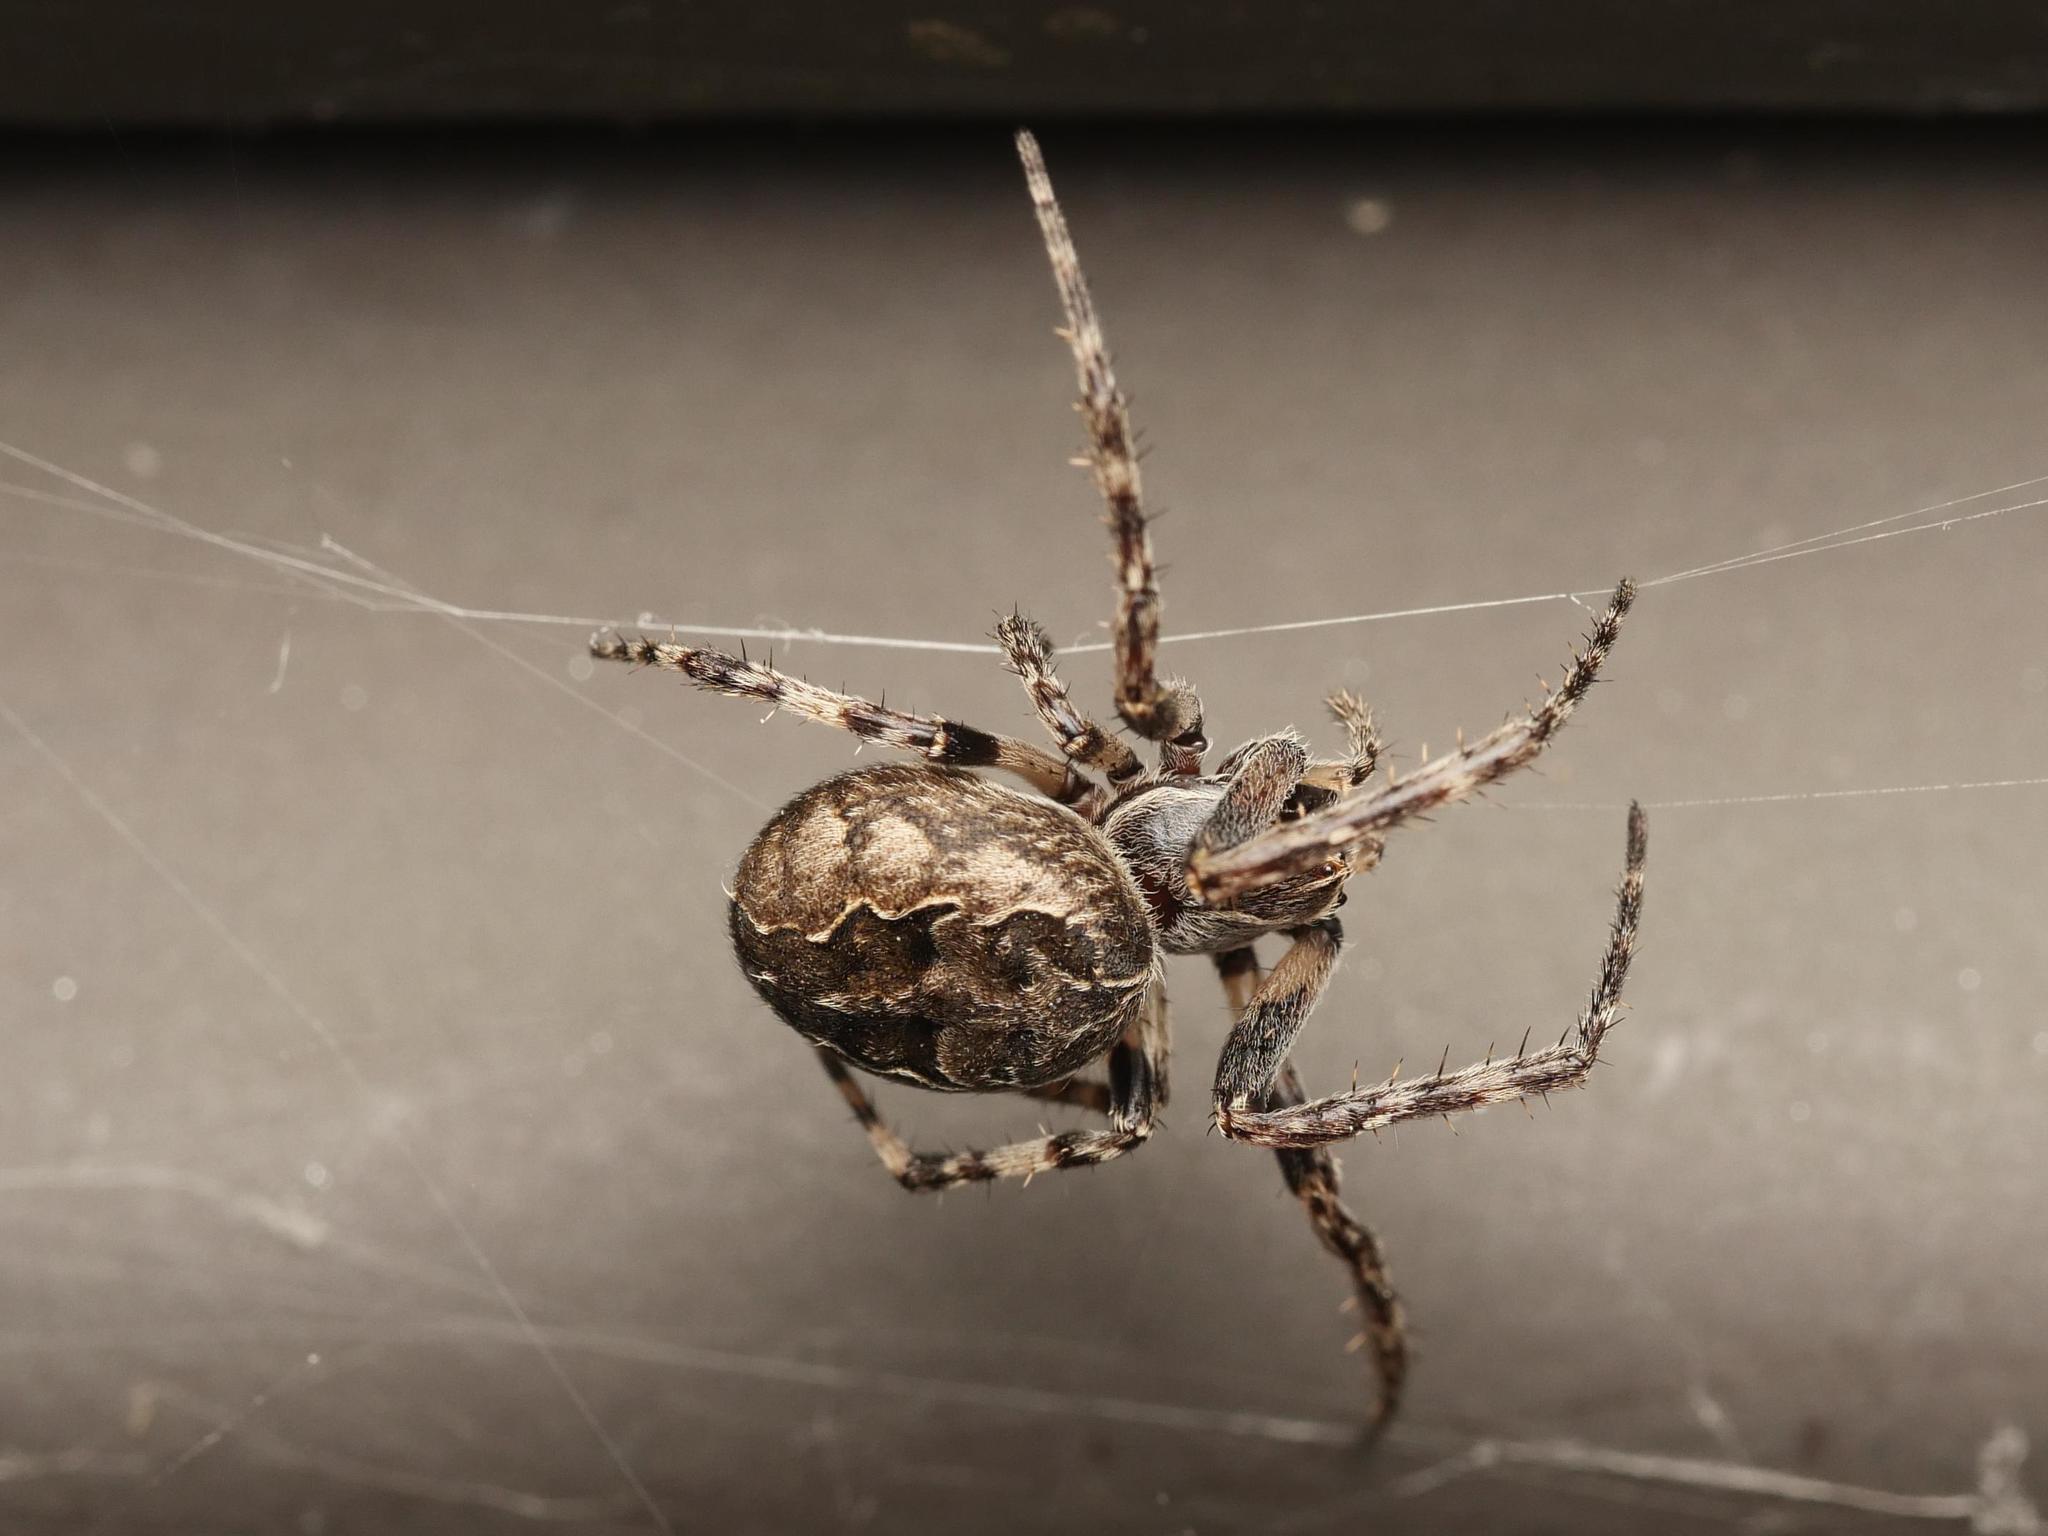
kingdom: Animalia
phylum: Arthropoda
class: Arachnida
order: Araneae
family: Araneidae
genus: Larinioides
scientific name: Larinioides sclopetarius
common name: Bridge orbweaver
